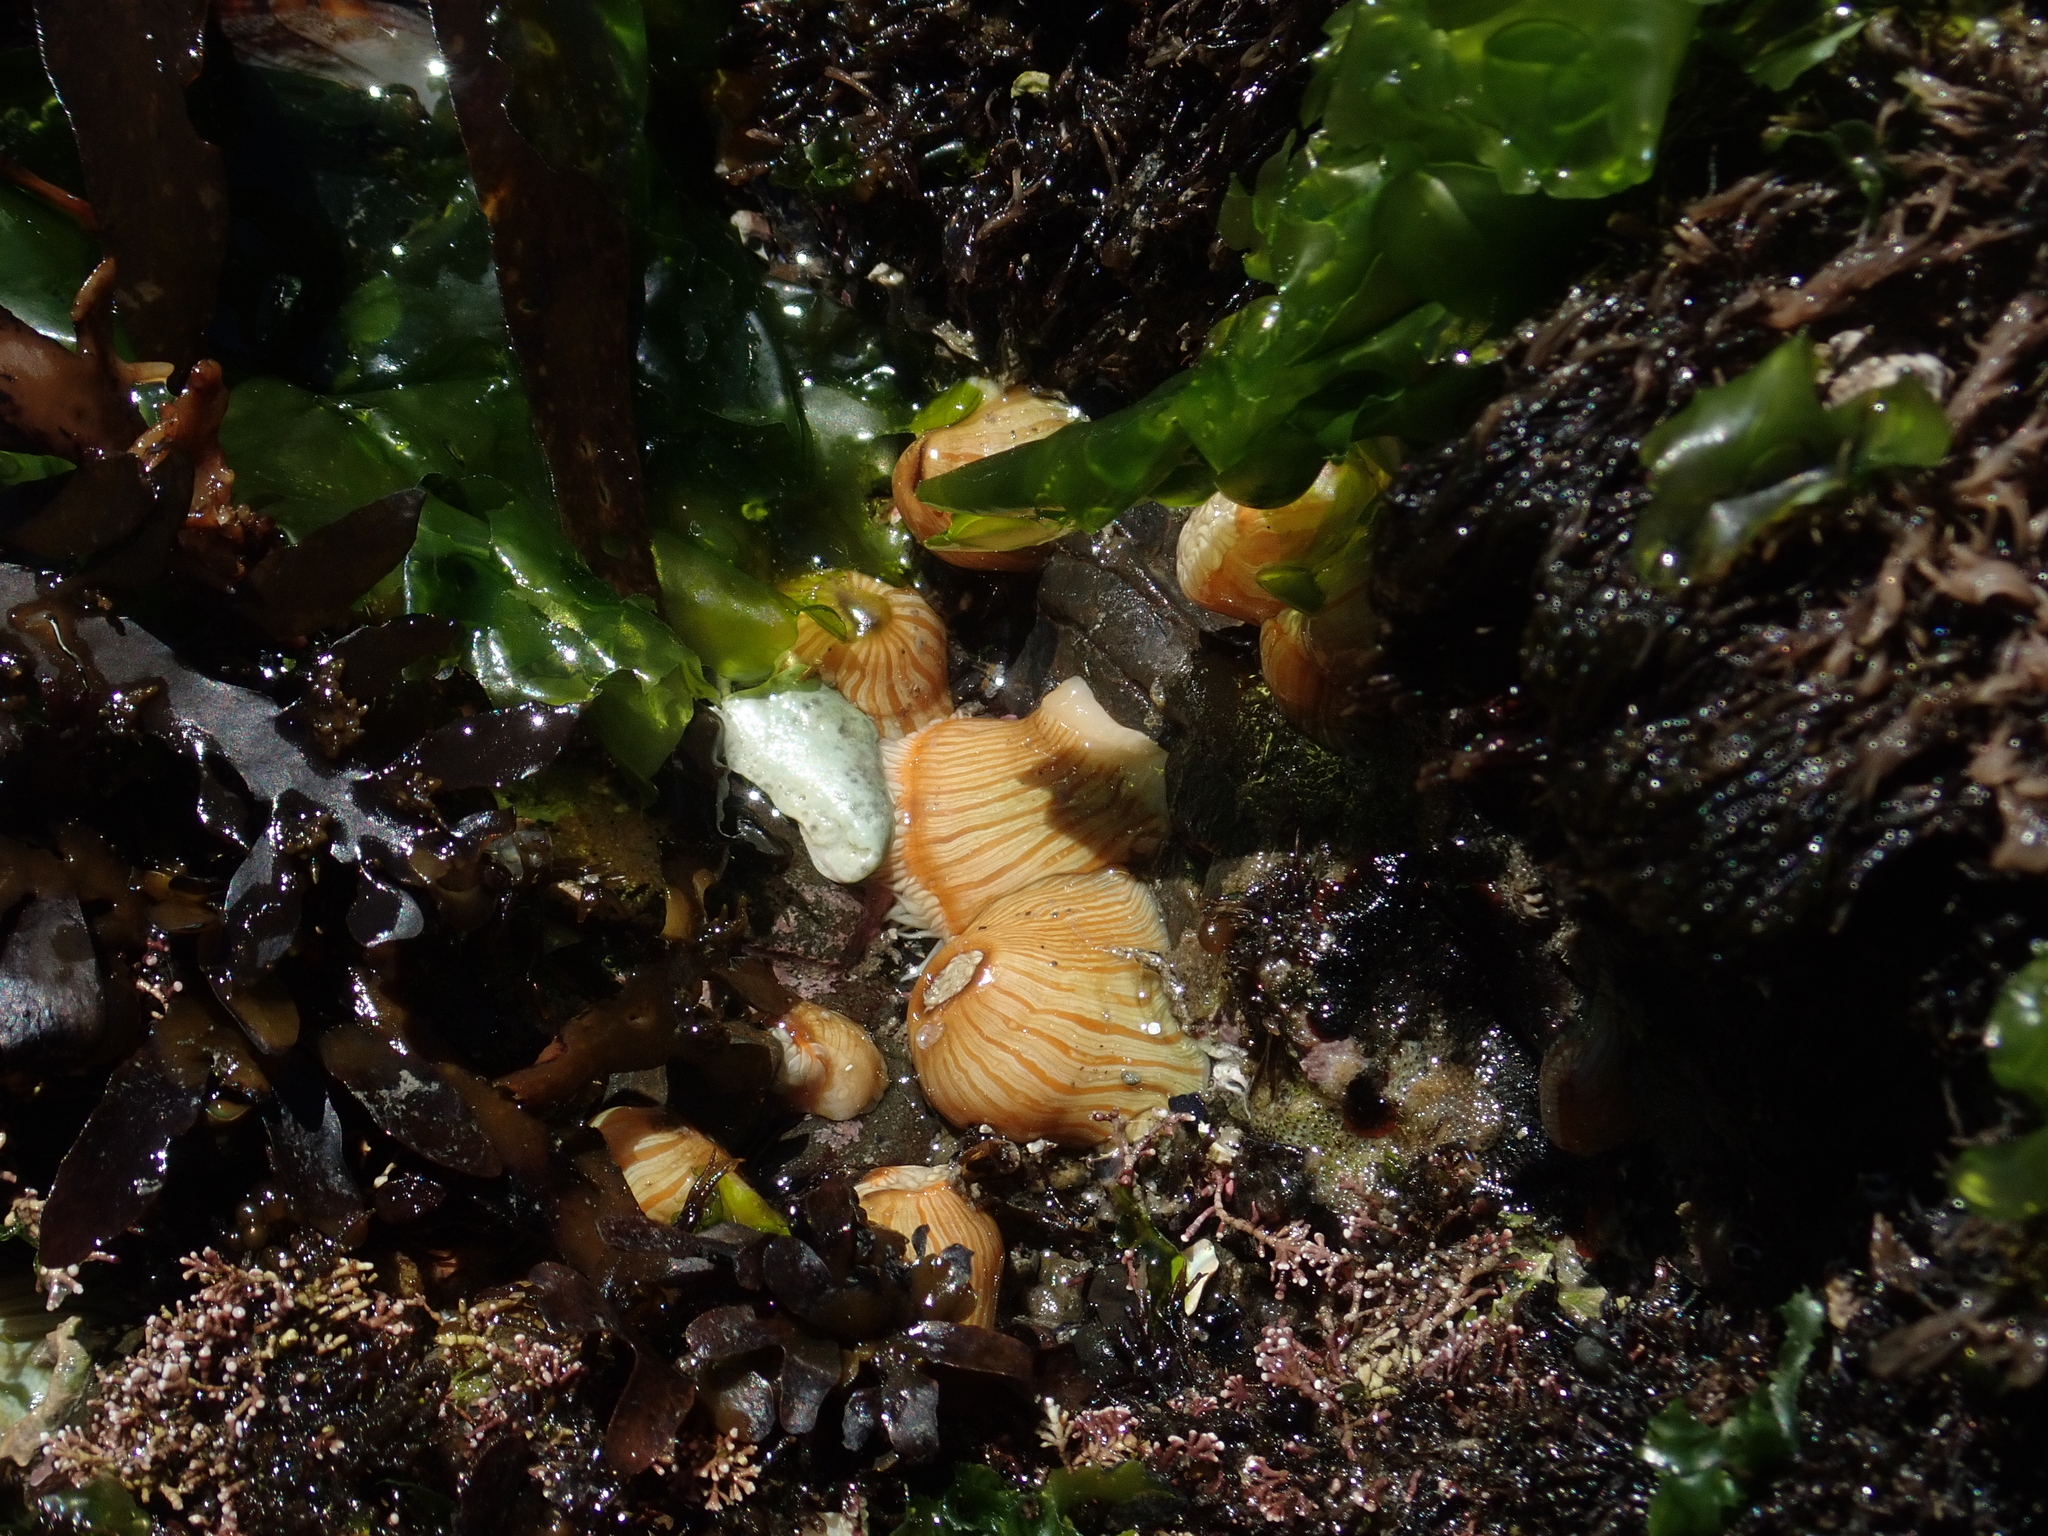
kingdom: Animalia
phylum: Cnidaria
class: Anthozoa
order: Actiniaria
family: Sagartiidae
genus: Anthothoe
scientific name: Anthothoe albocincta
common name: Orange striped anemone
